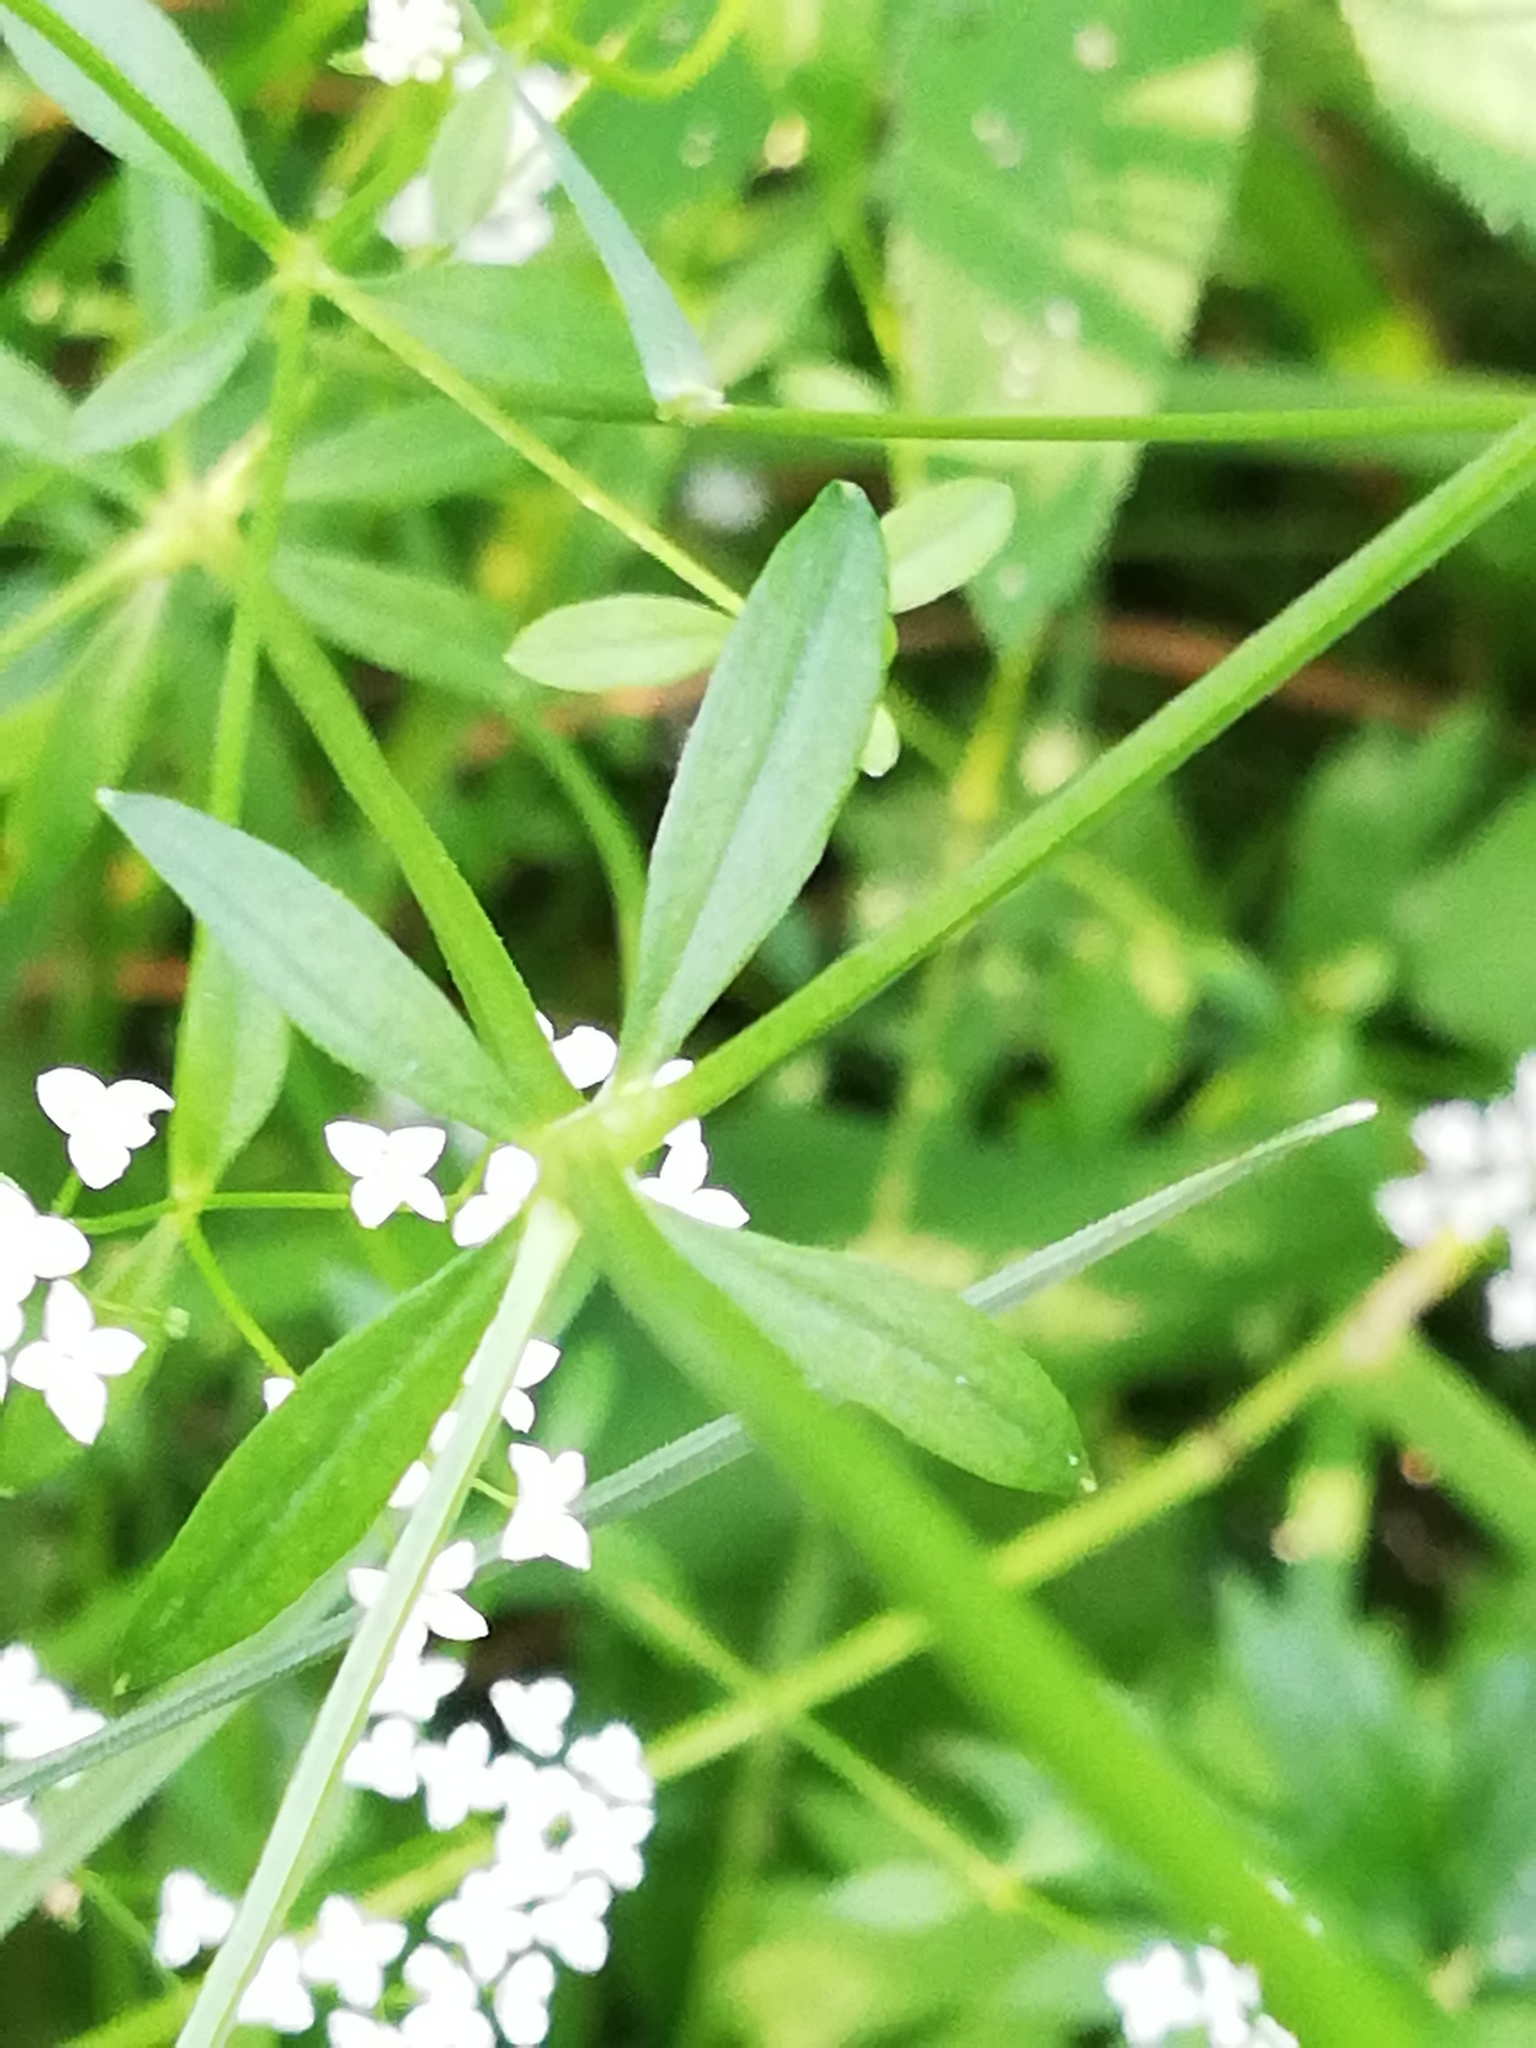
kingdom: Plantae
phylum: Tracheophyta
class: Magnoliopsida
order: Gentianales
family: Rubiaceae
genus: Galium
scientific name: Galium palustre
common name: Common marsh-bedstraw
